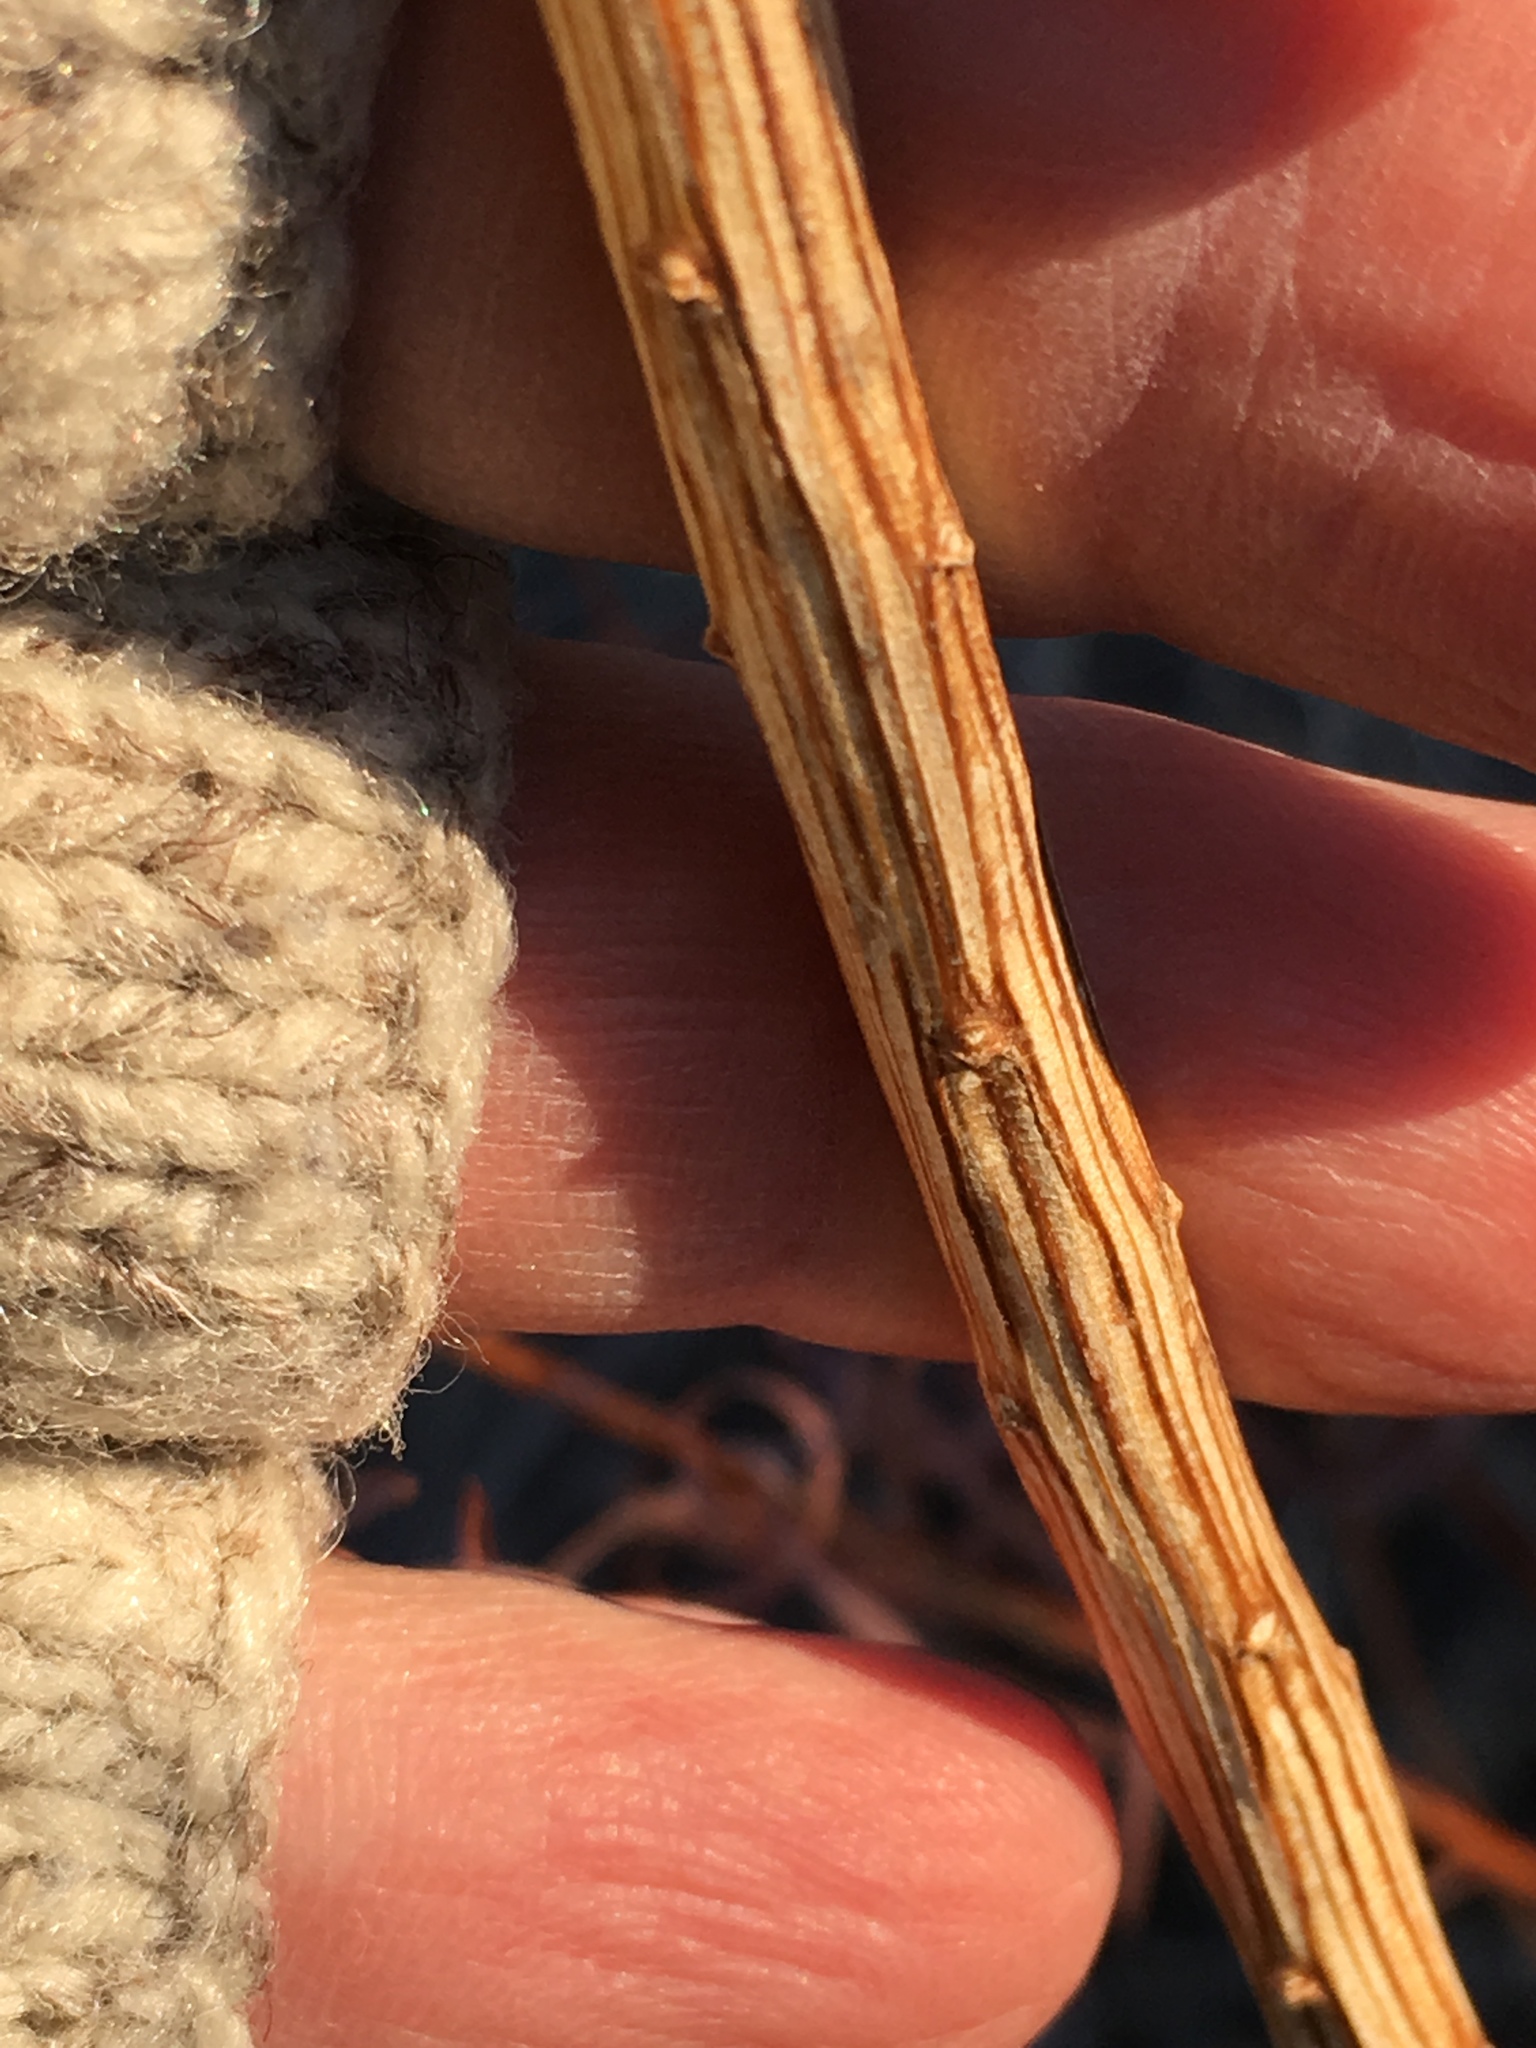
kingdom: Plantae
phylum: Tracheophyta
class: Magnoliopsida
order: Asterales
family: Asteraceae
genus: Erigeron
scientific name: Erigeron canadensis
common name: Canadian fleabane
